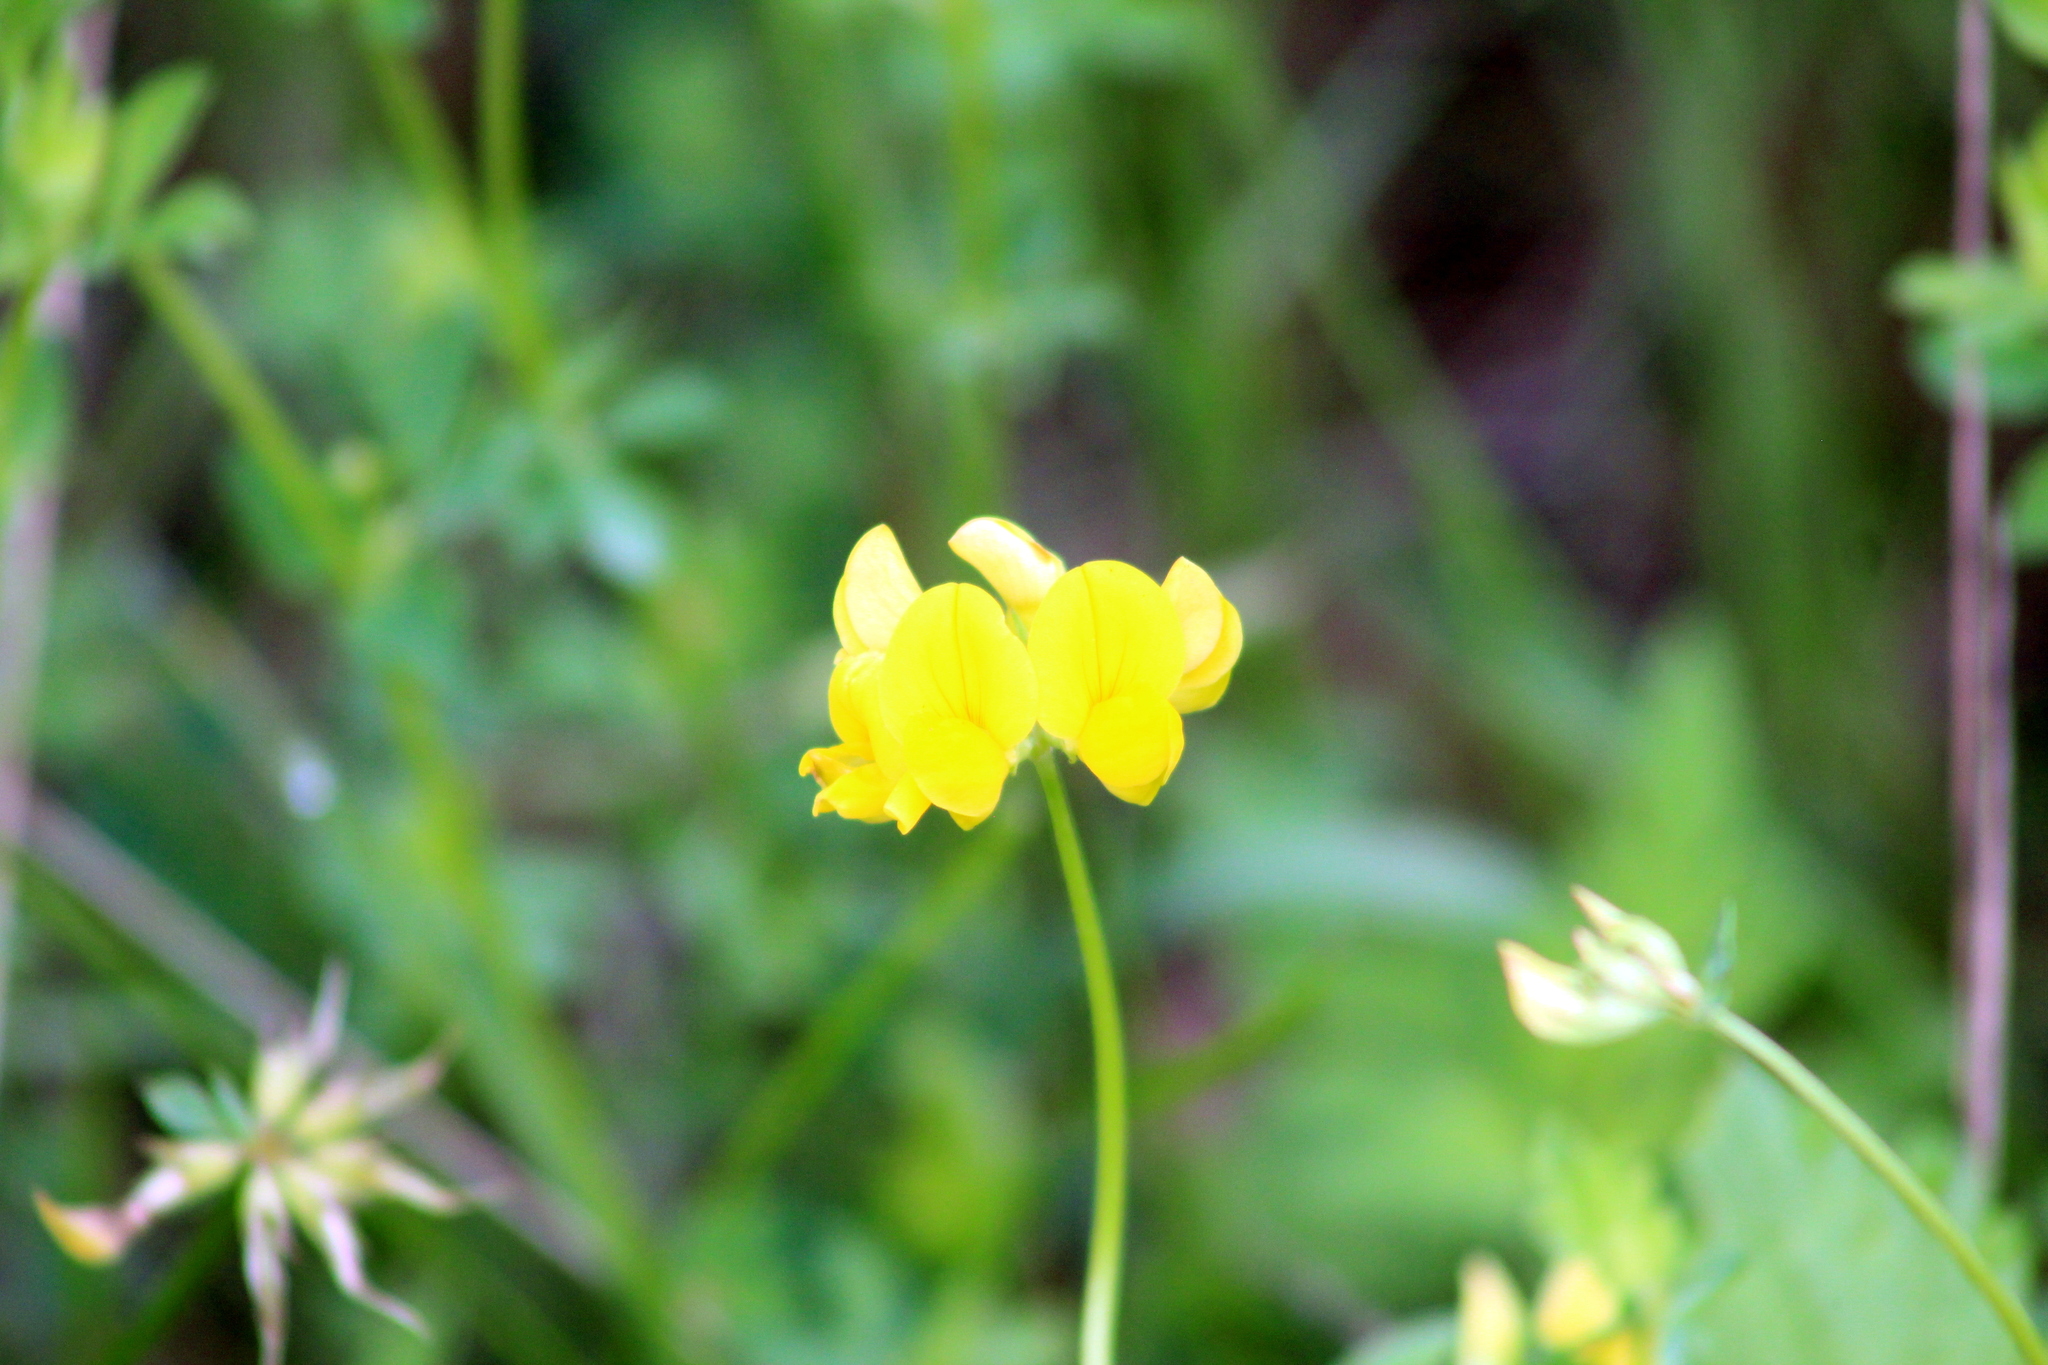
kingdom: Plantae
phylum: Tracheophyta
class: Magnoliopsida
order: Fabales
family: Fabaceae
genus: Lotus
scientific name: Lotus corniculatus
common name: Common bird's-foot-trefoil
